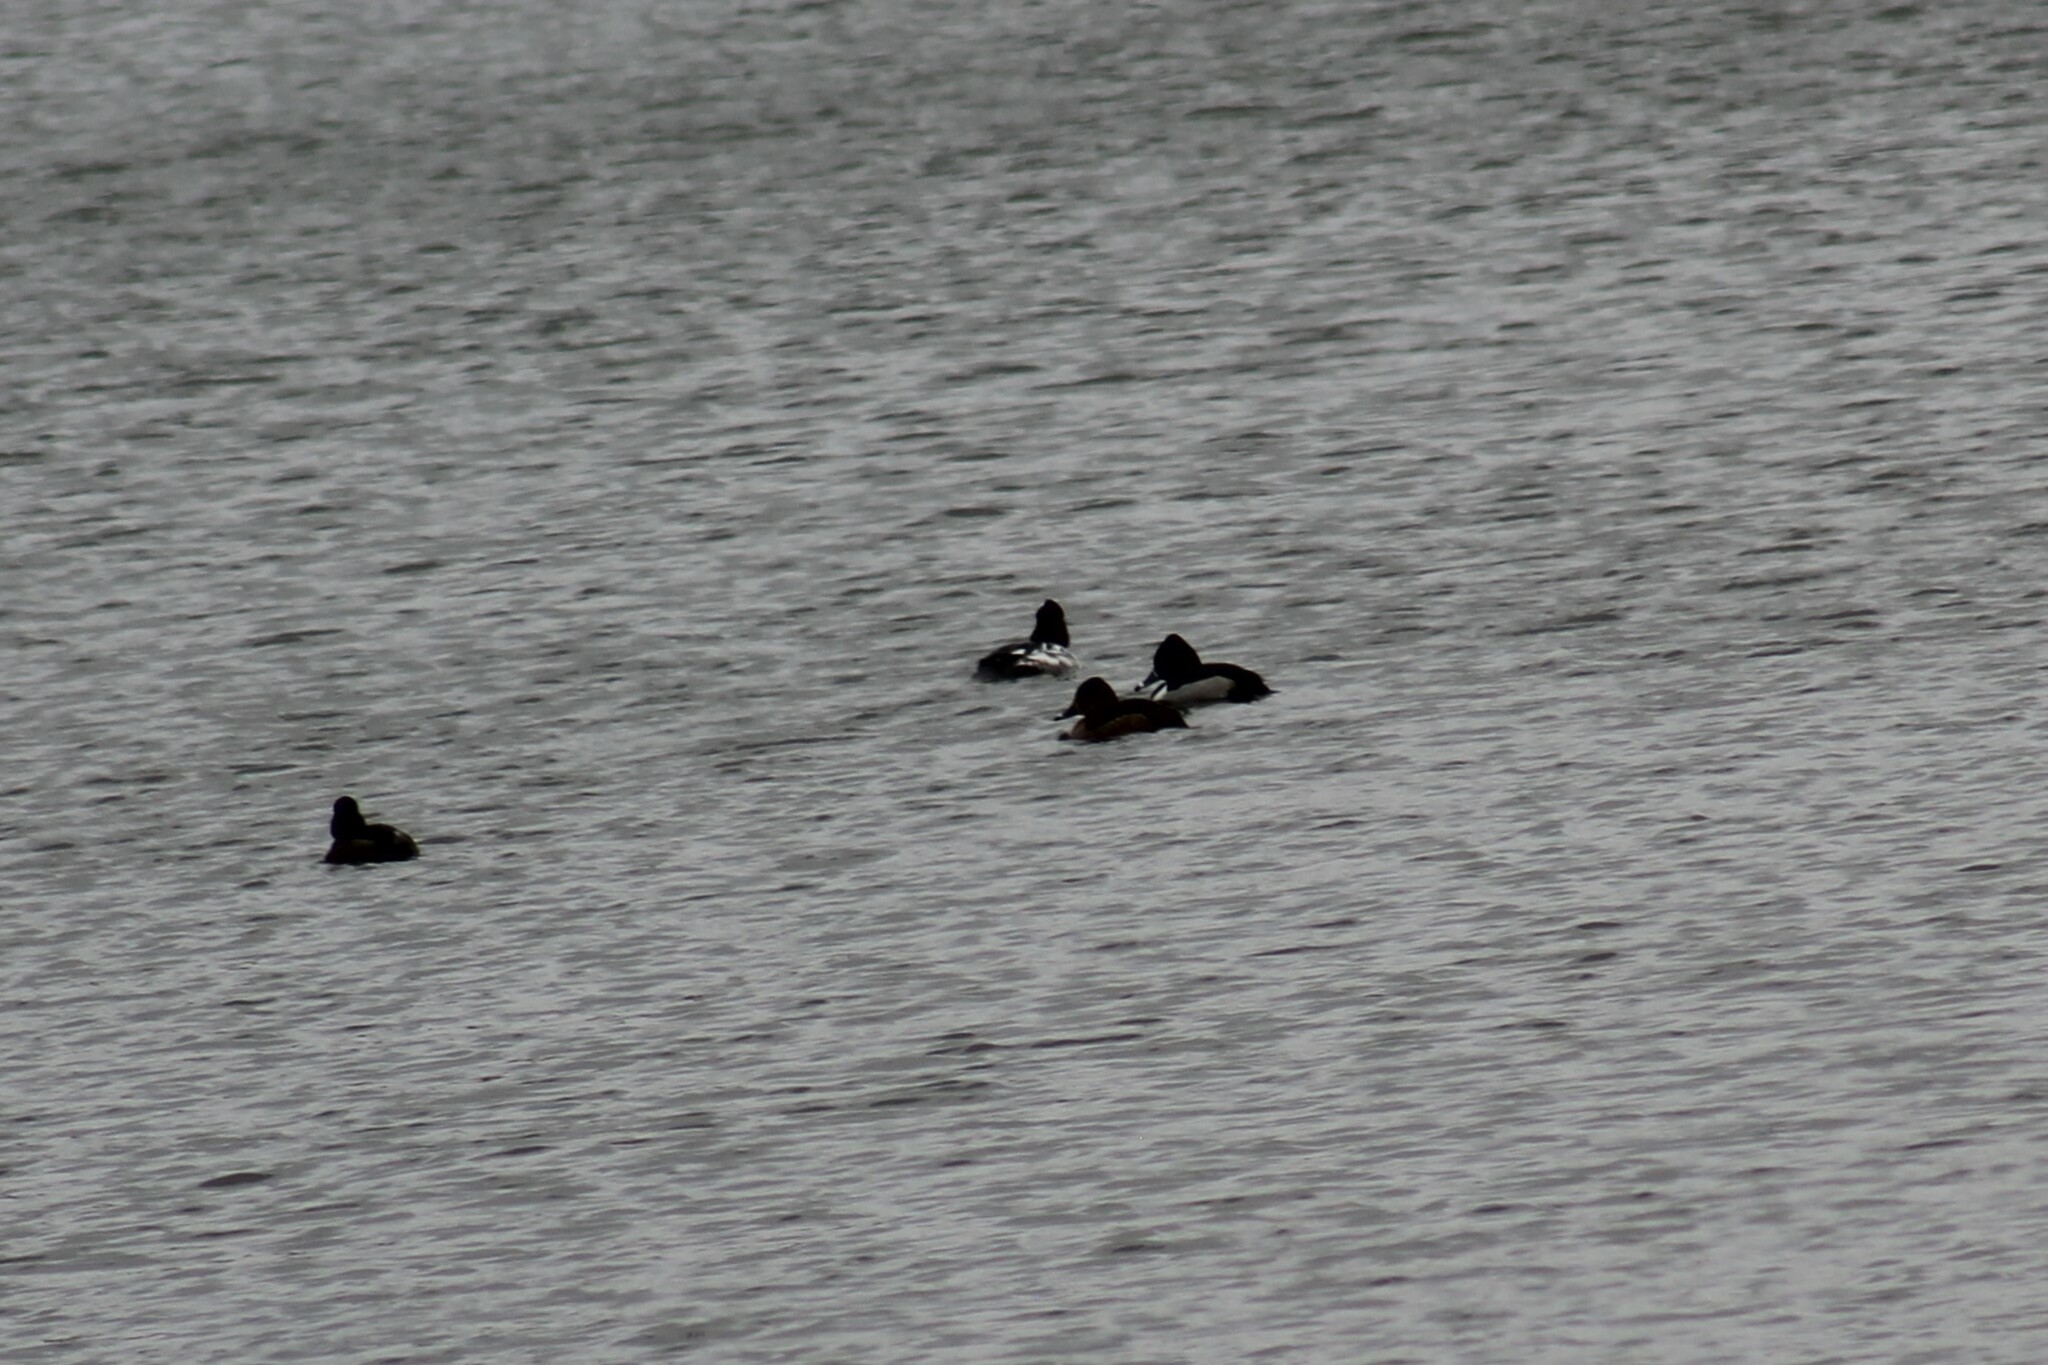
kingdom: Animalia
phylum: Chordata
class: Aves
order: Anseriformes
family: Anatidae
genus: Aythya
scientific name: Aythya collaris
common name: Ring-necked duck
